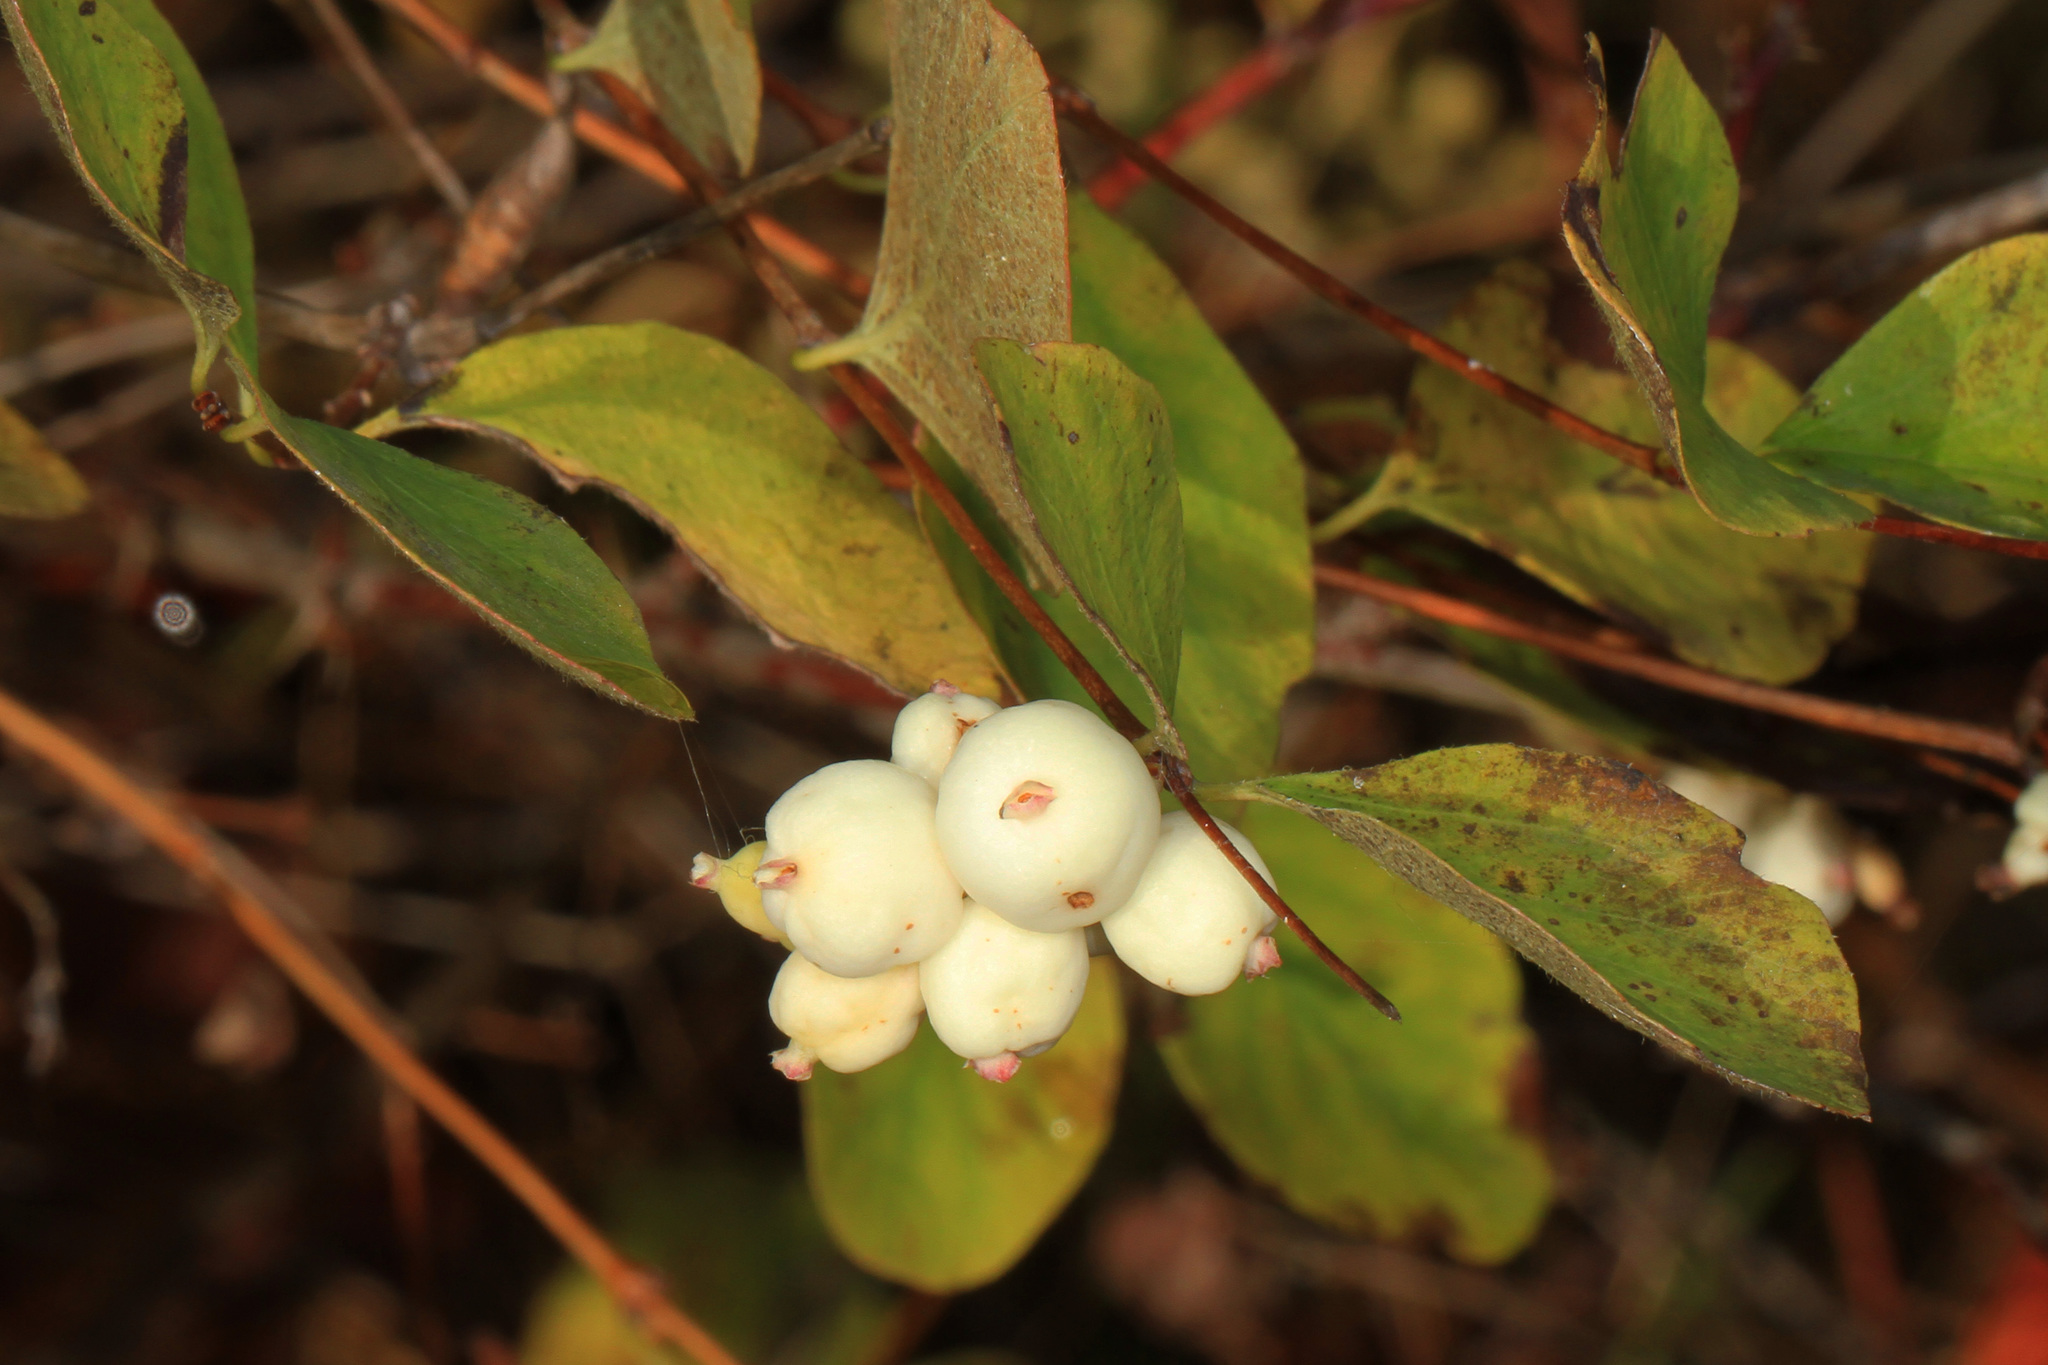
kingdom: Plantae
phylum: Tracheophyta
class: Magnoliopsida
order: Dipsacales
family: Caprifoliaceae
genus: Symphoricarpos
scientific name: Symphoricarpos albus
